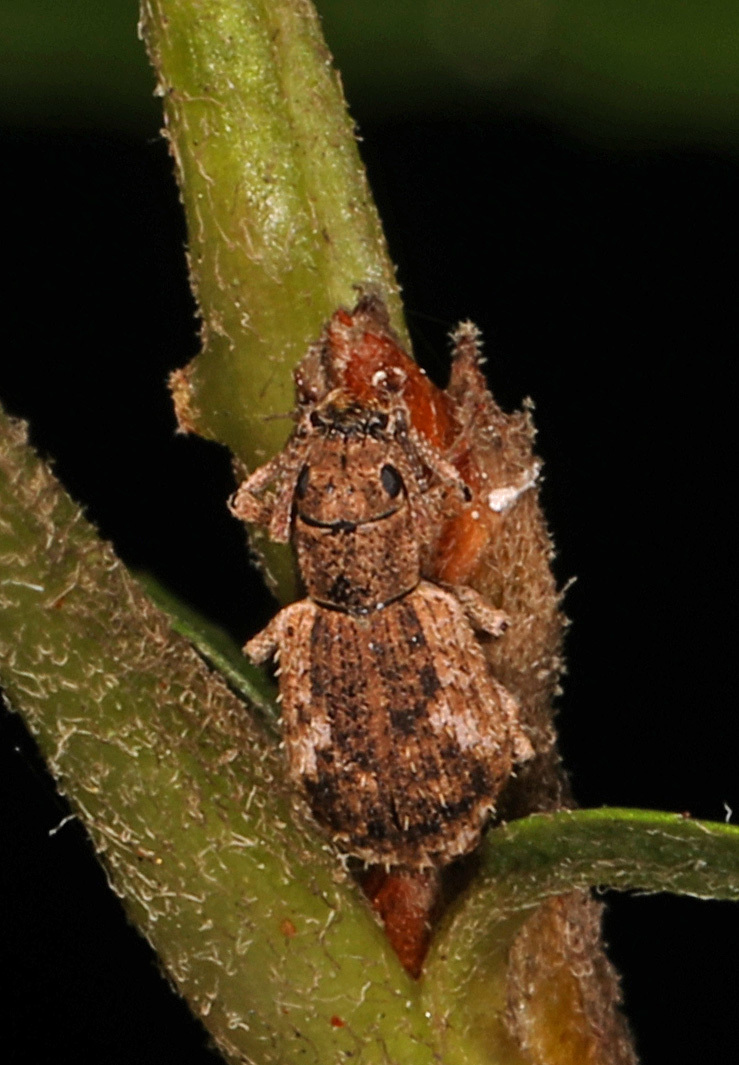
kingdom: Animalia
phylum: Arthropoda
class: Insecta
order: Coleoptera
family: Curculionidae
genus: Pseudoedophrys
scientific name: Pseudoedophrys hilleri
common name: Weevil
